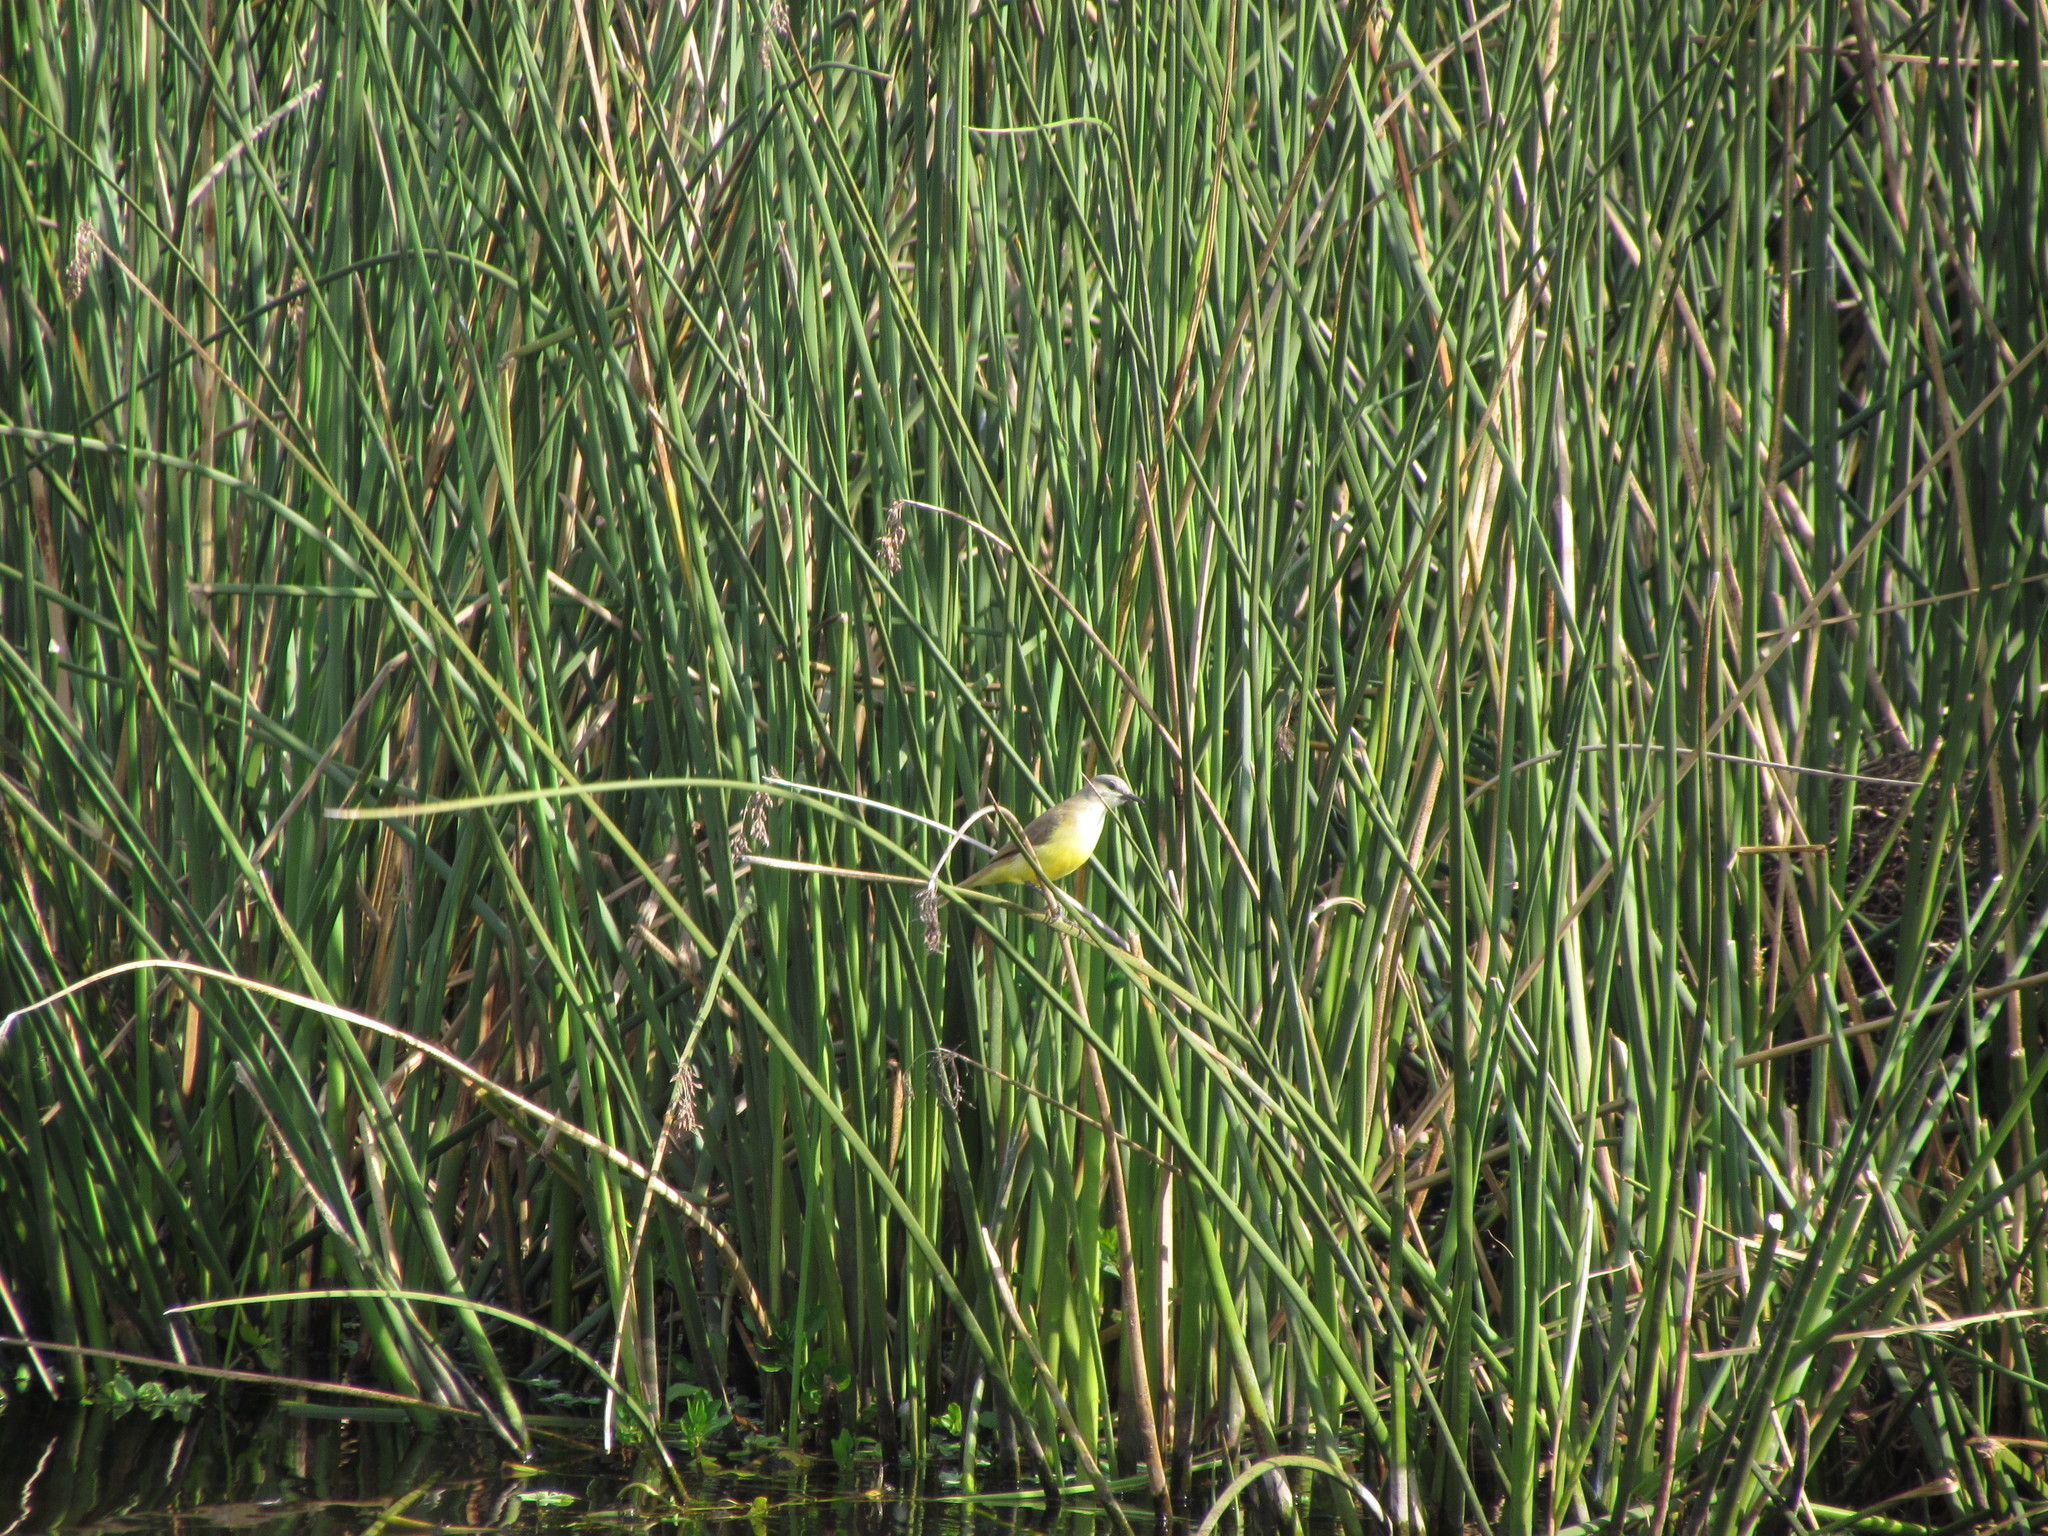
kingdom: Animalia
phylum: Chordata
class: Aves
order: Passeriformes
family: Tyrannidae
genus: Machetornis
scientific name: Machetornis rixosa
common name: Cattle tyrant
